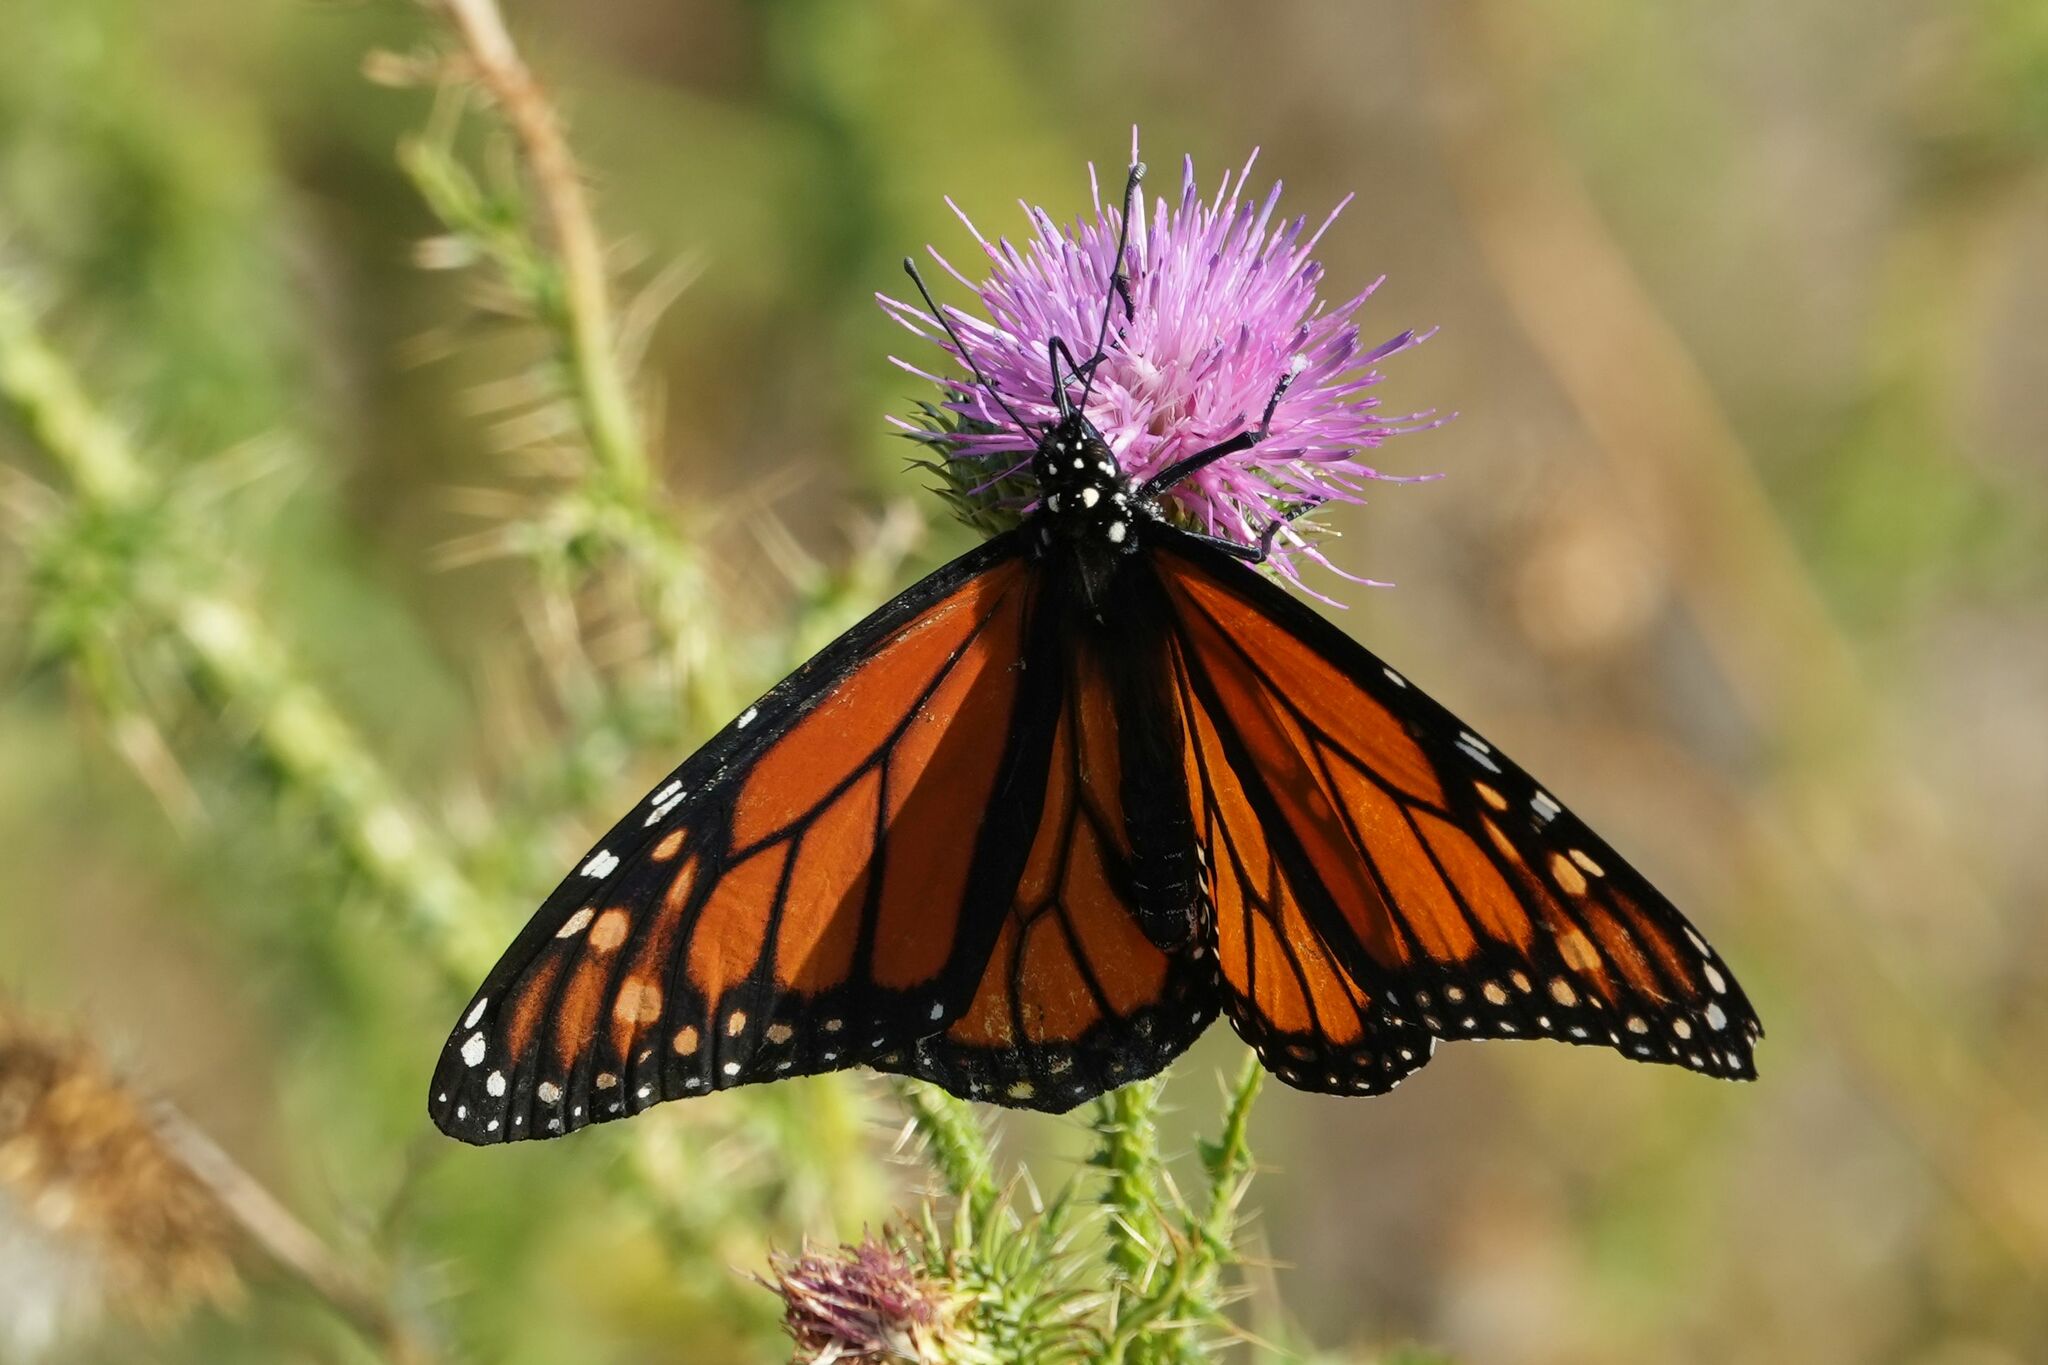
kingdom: Animalia
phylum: Arthropoda
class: Insecta
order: Lepidoptera
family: Nymphalidae
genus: Danaus
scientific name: Danaus plexippus
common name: Monarch
